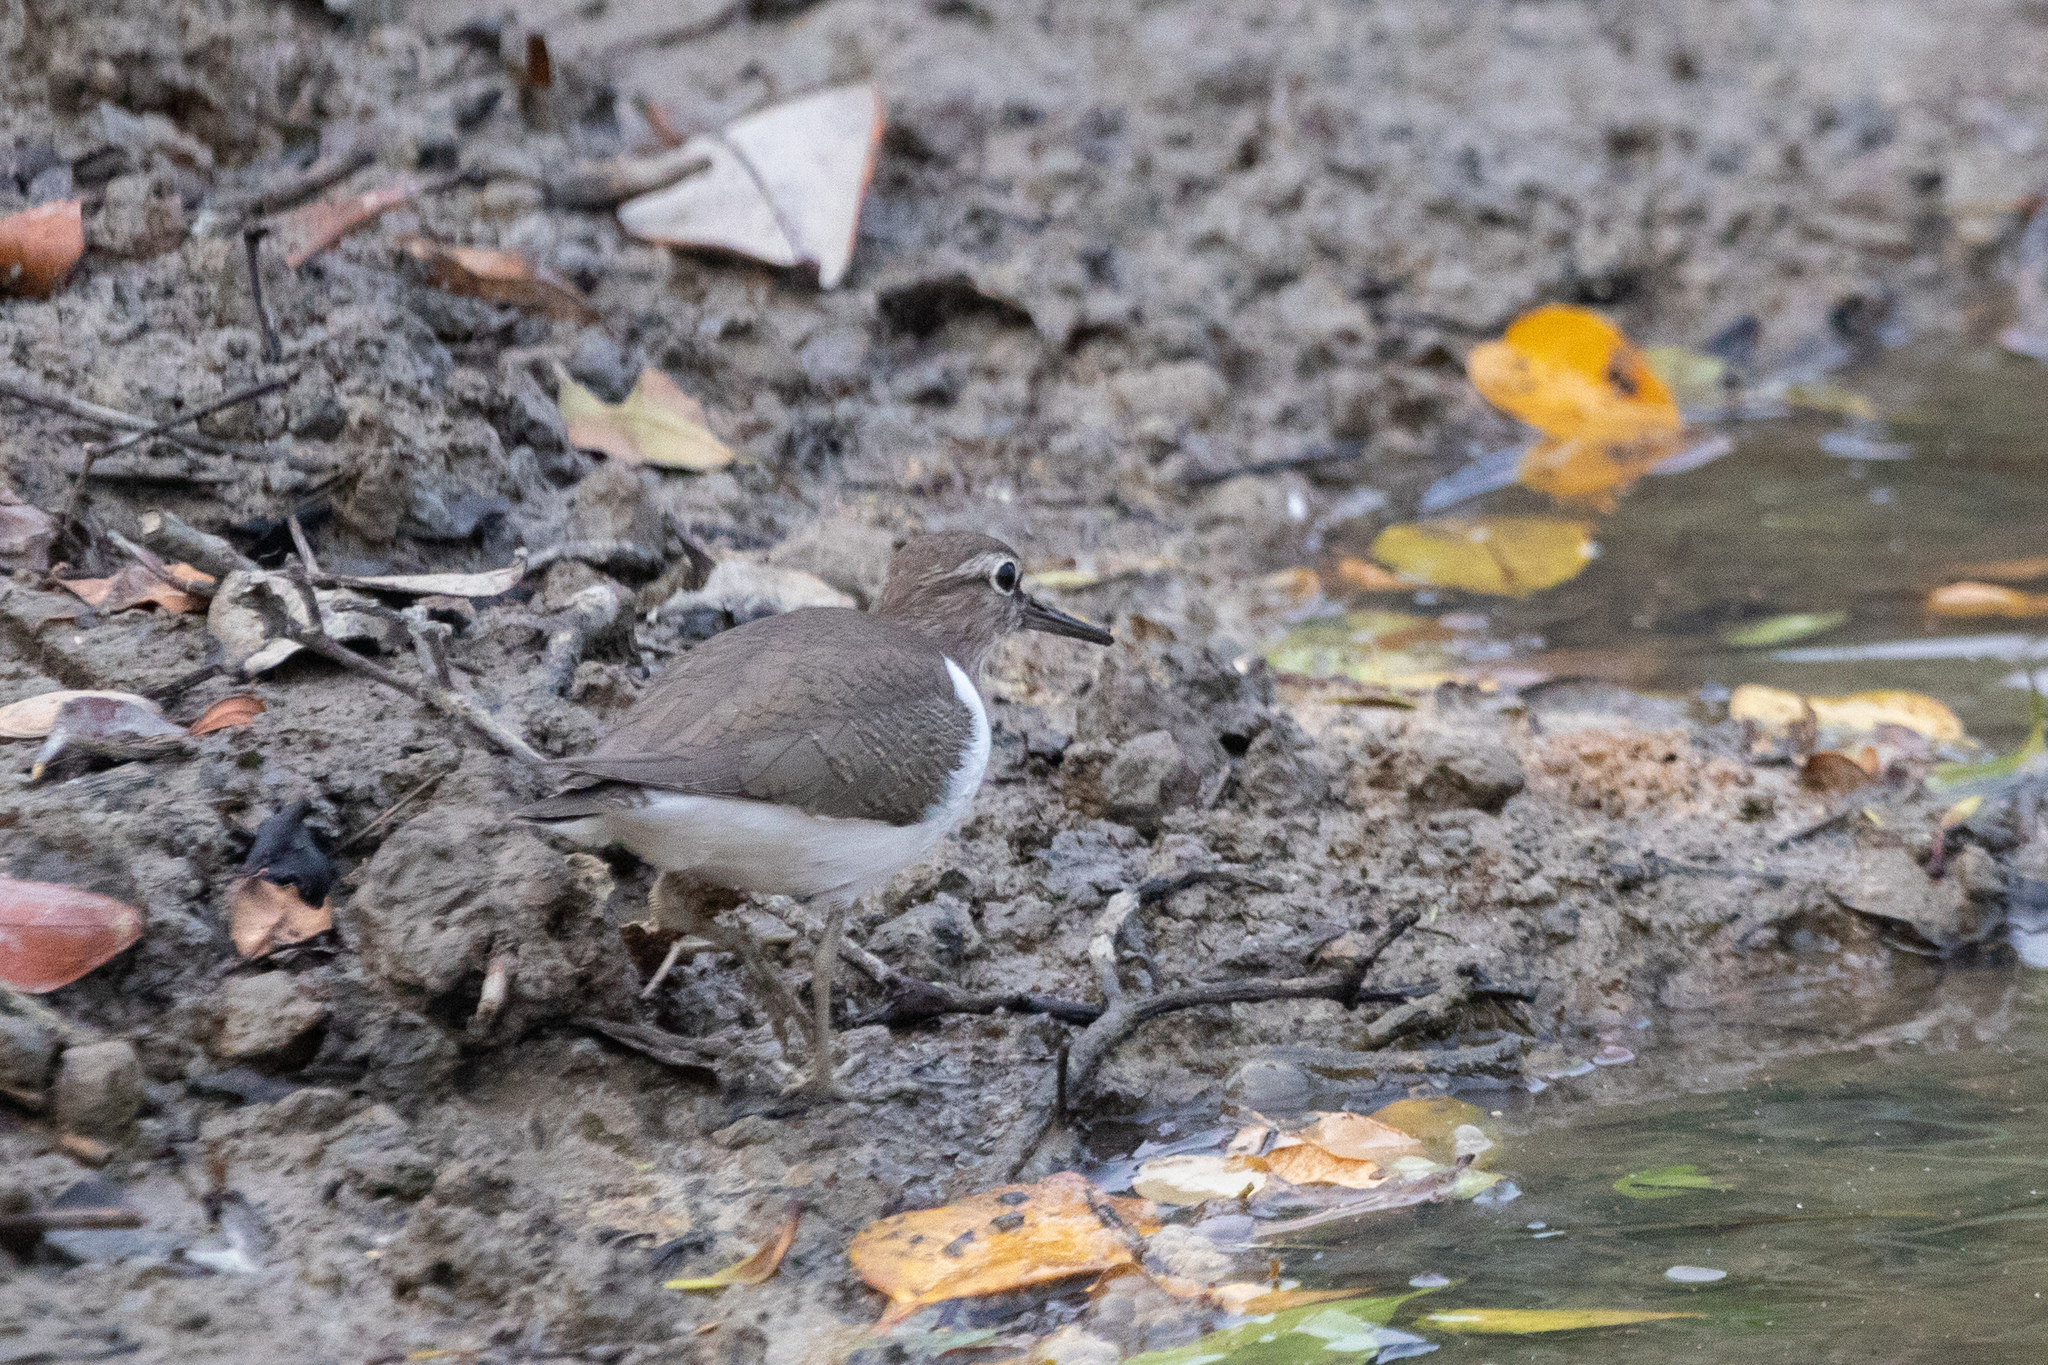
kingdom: Animalia
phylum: Chordata
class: Aves
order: Charadriiformes
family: Scolopacidae
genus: Actitis
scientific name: Actitis hypoleucos
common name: Common sandpiper
